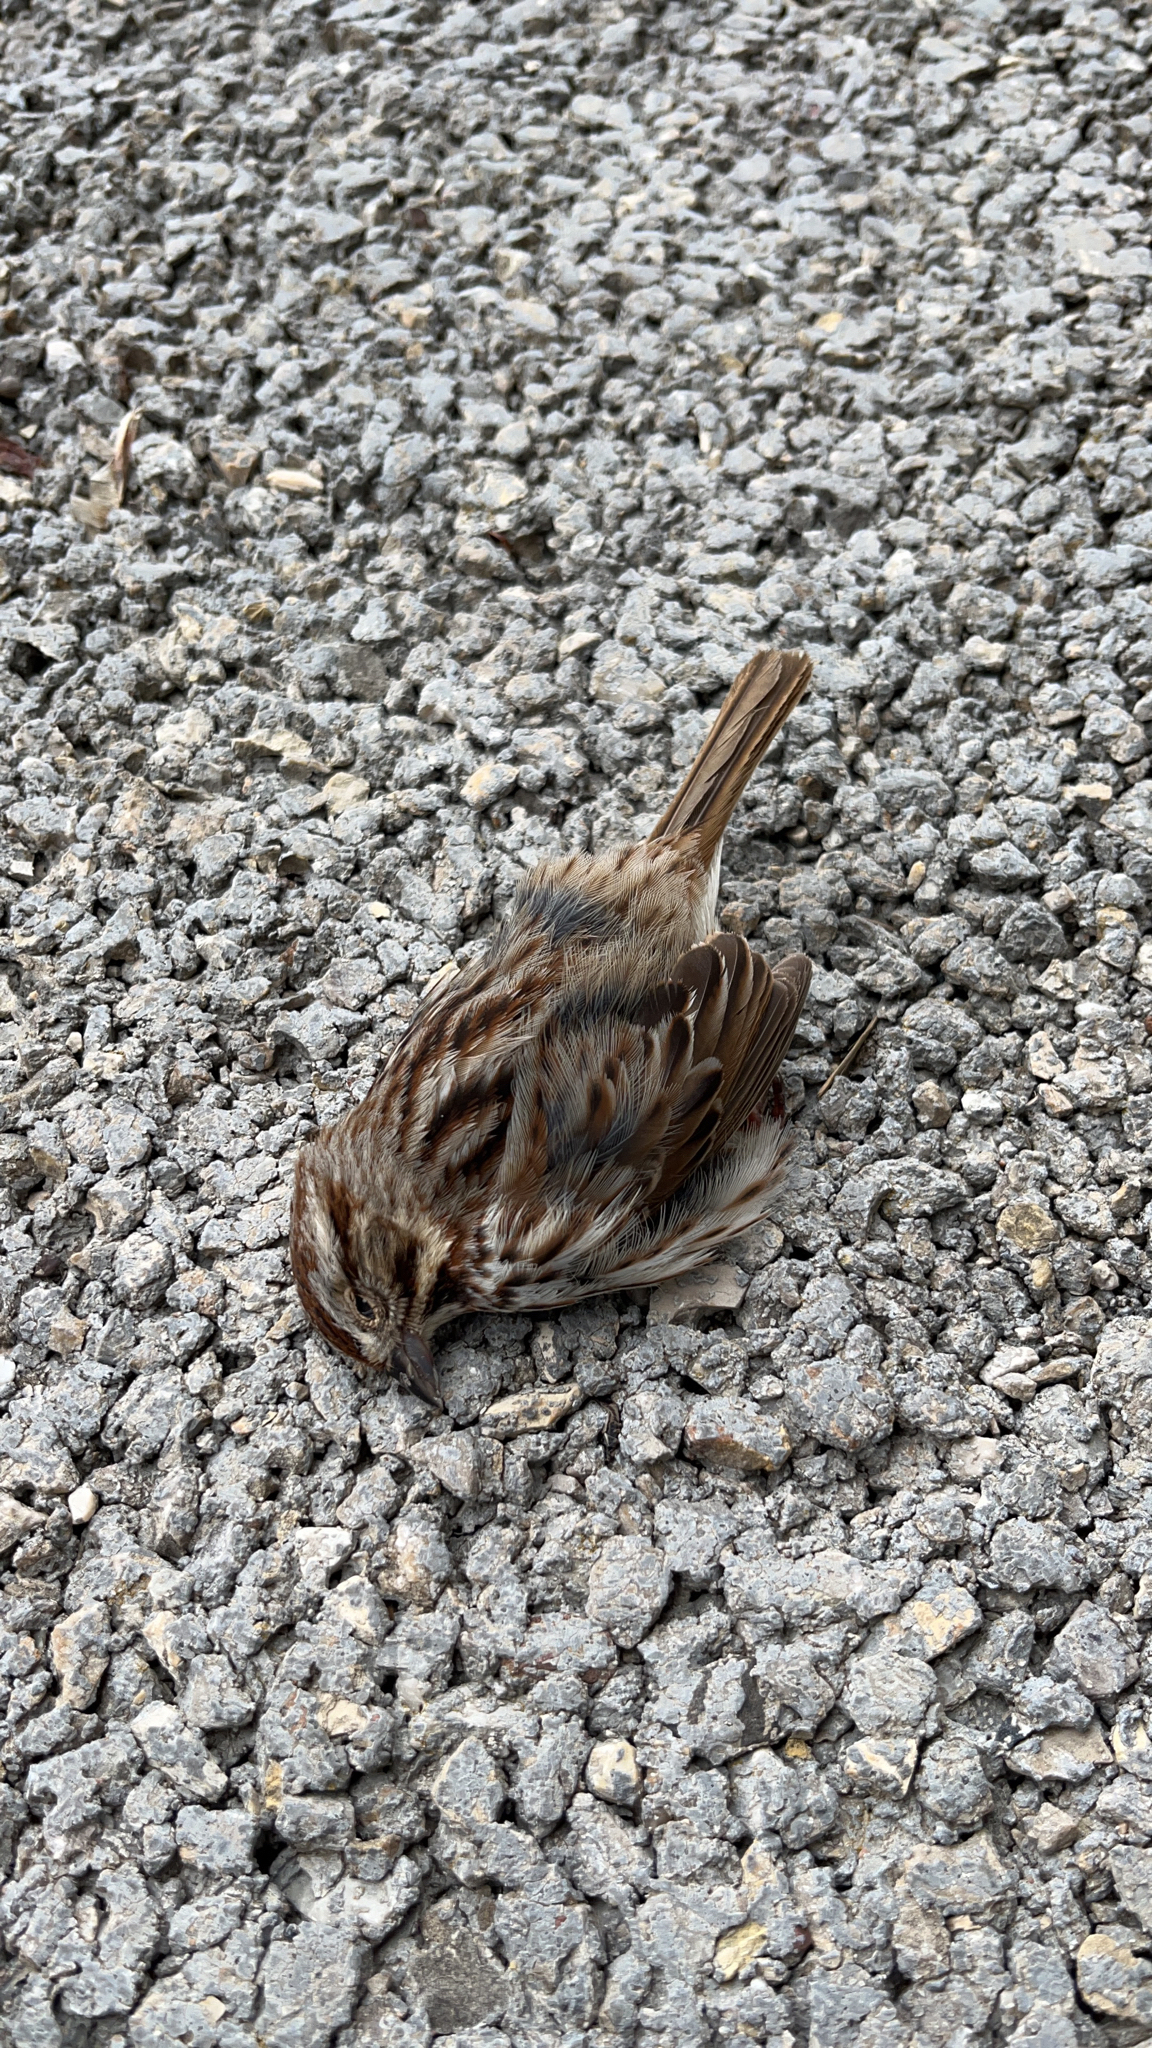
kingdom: Animalia
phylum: Chordata
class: Aves
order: Passeriformes
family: Passerellidae
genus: Melospiza
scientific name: Melospiza melodia
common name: Song sparrow
